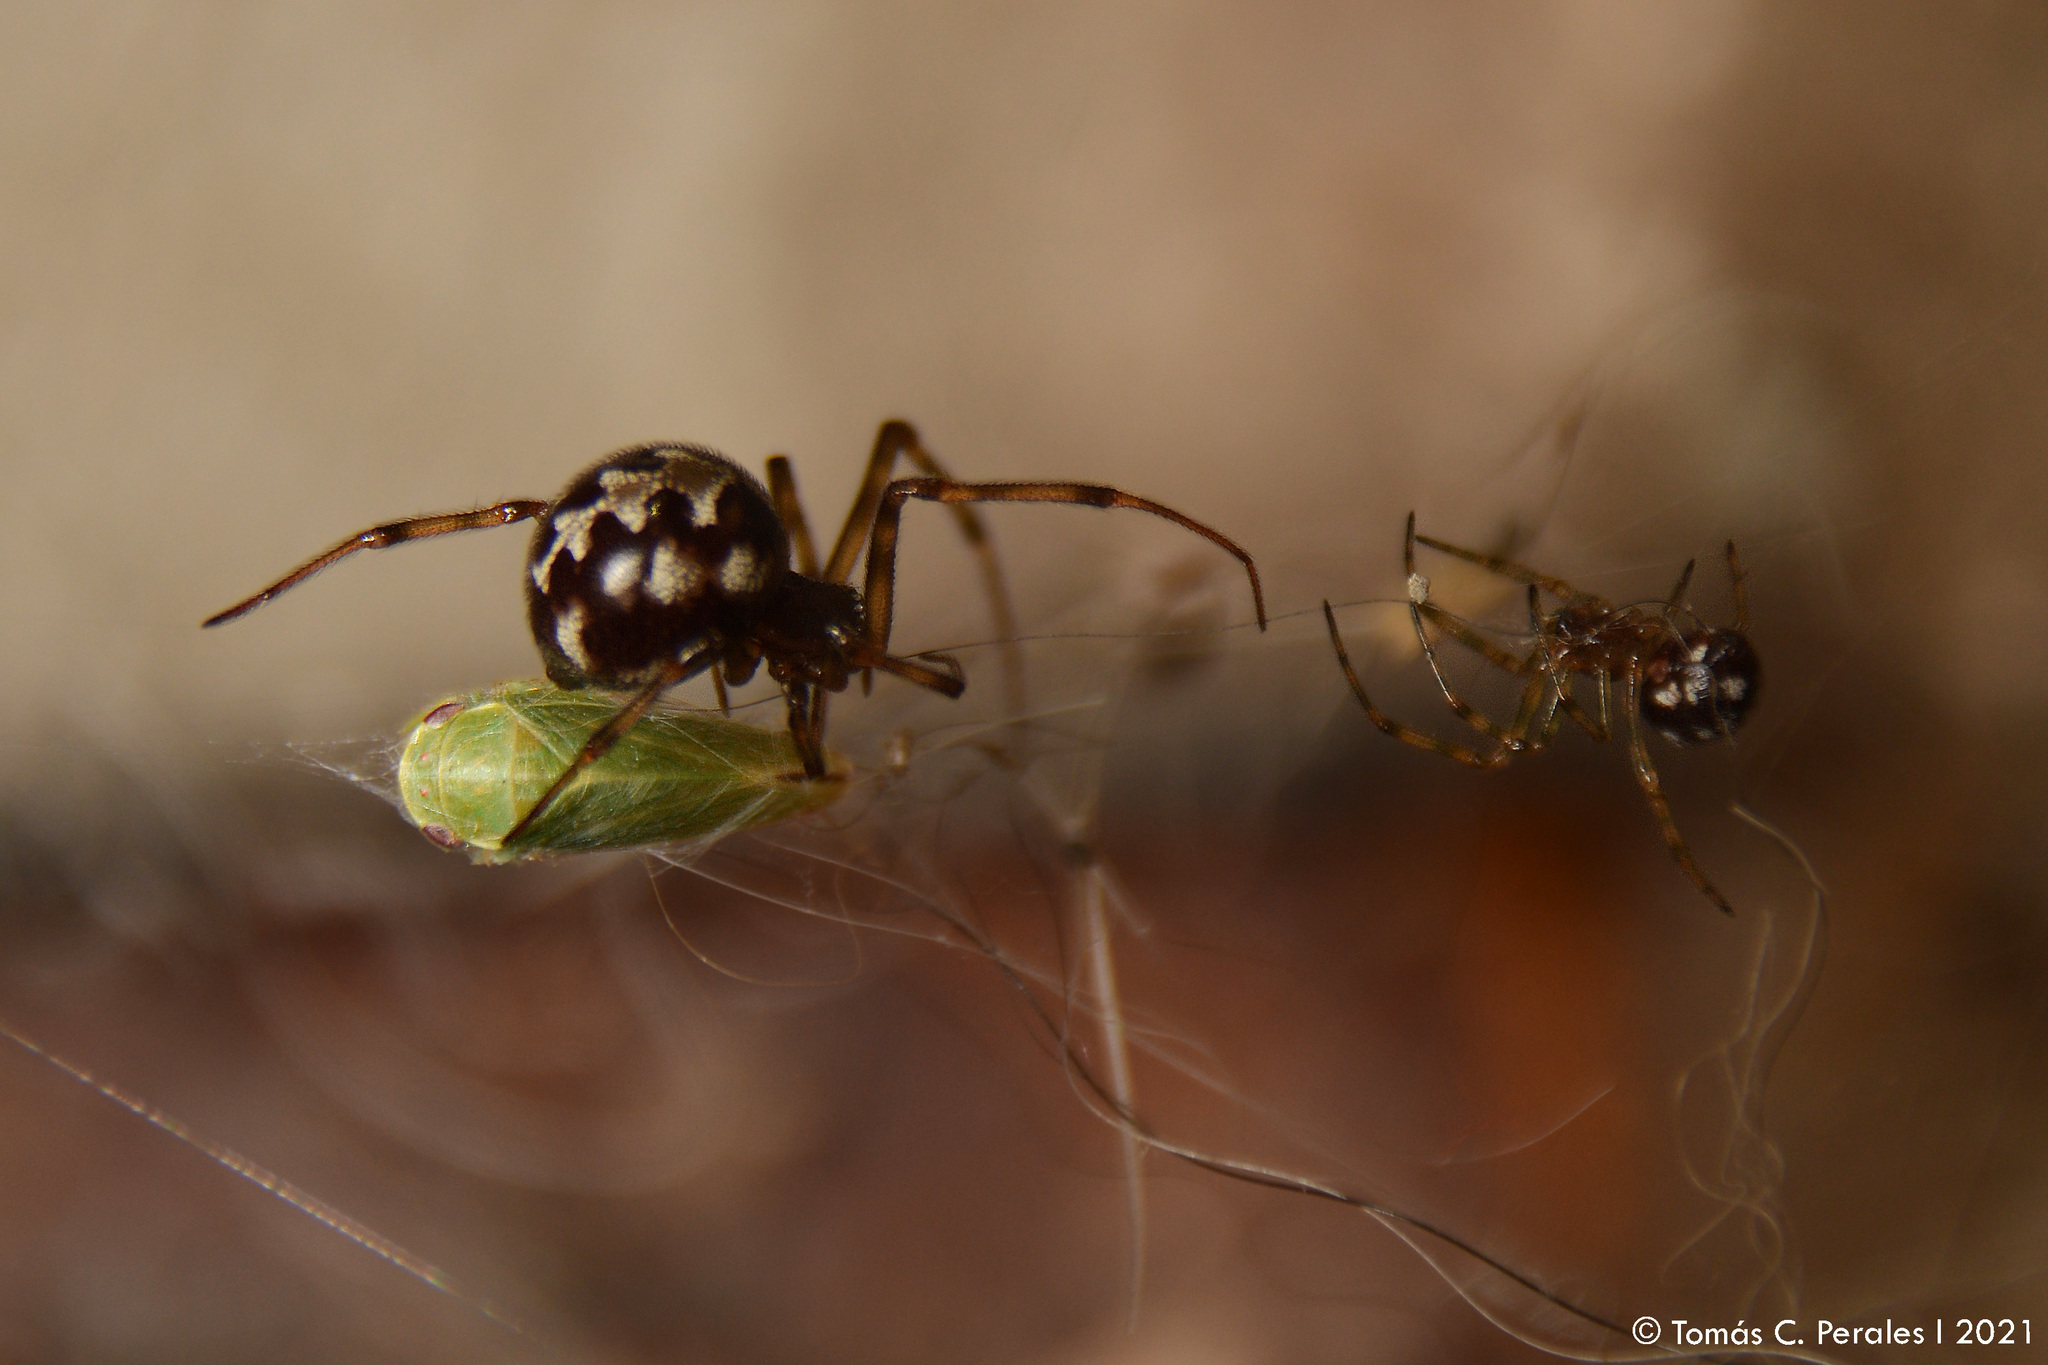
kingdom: Animalia
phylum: Arthropoda
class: Arachnida
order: Araneae
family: Theridiidae
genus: Steatoda
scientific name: Steatoda triangulosa
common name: Triangulate bud spider
